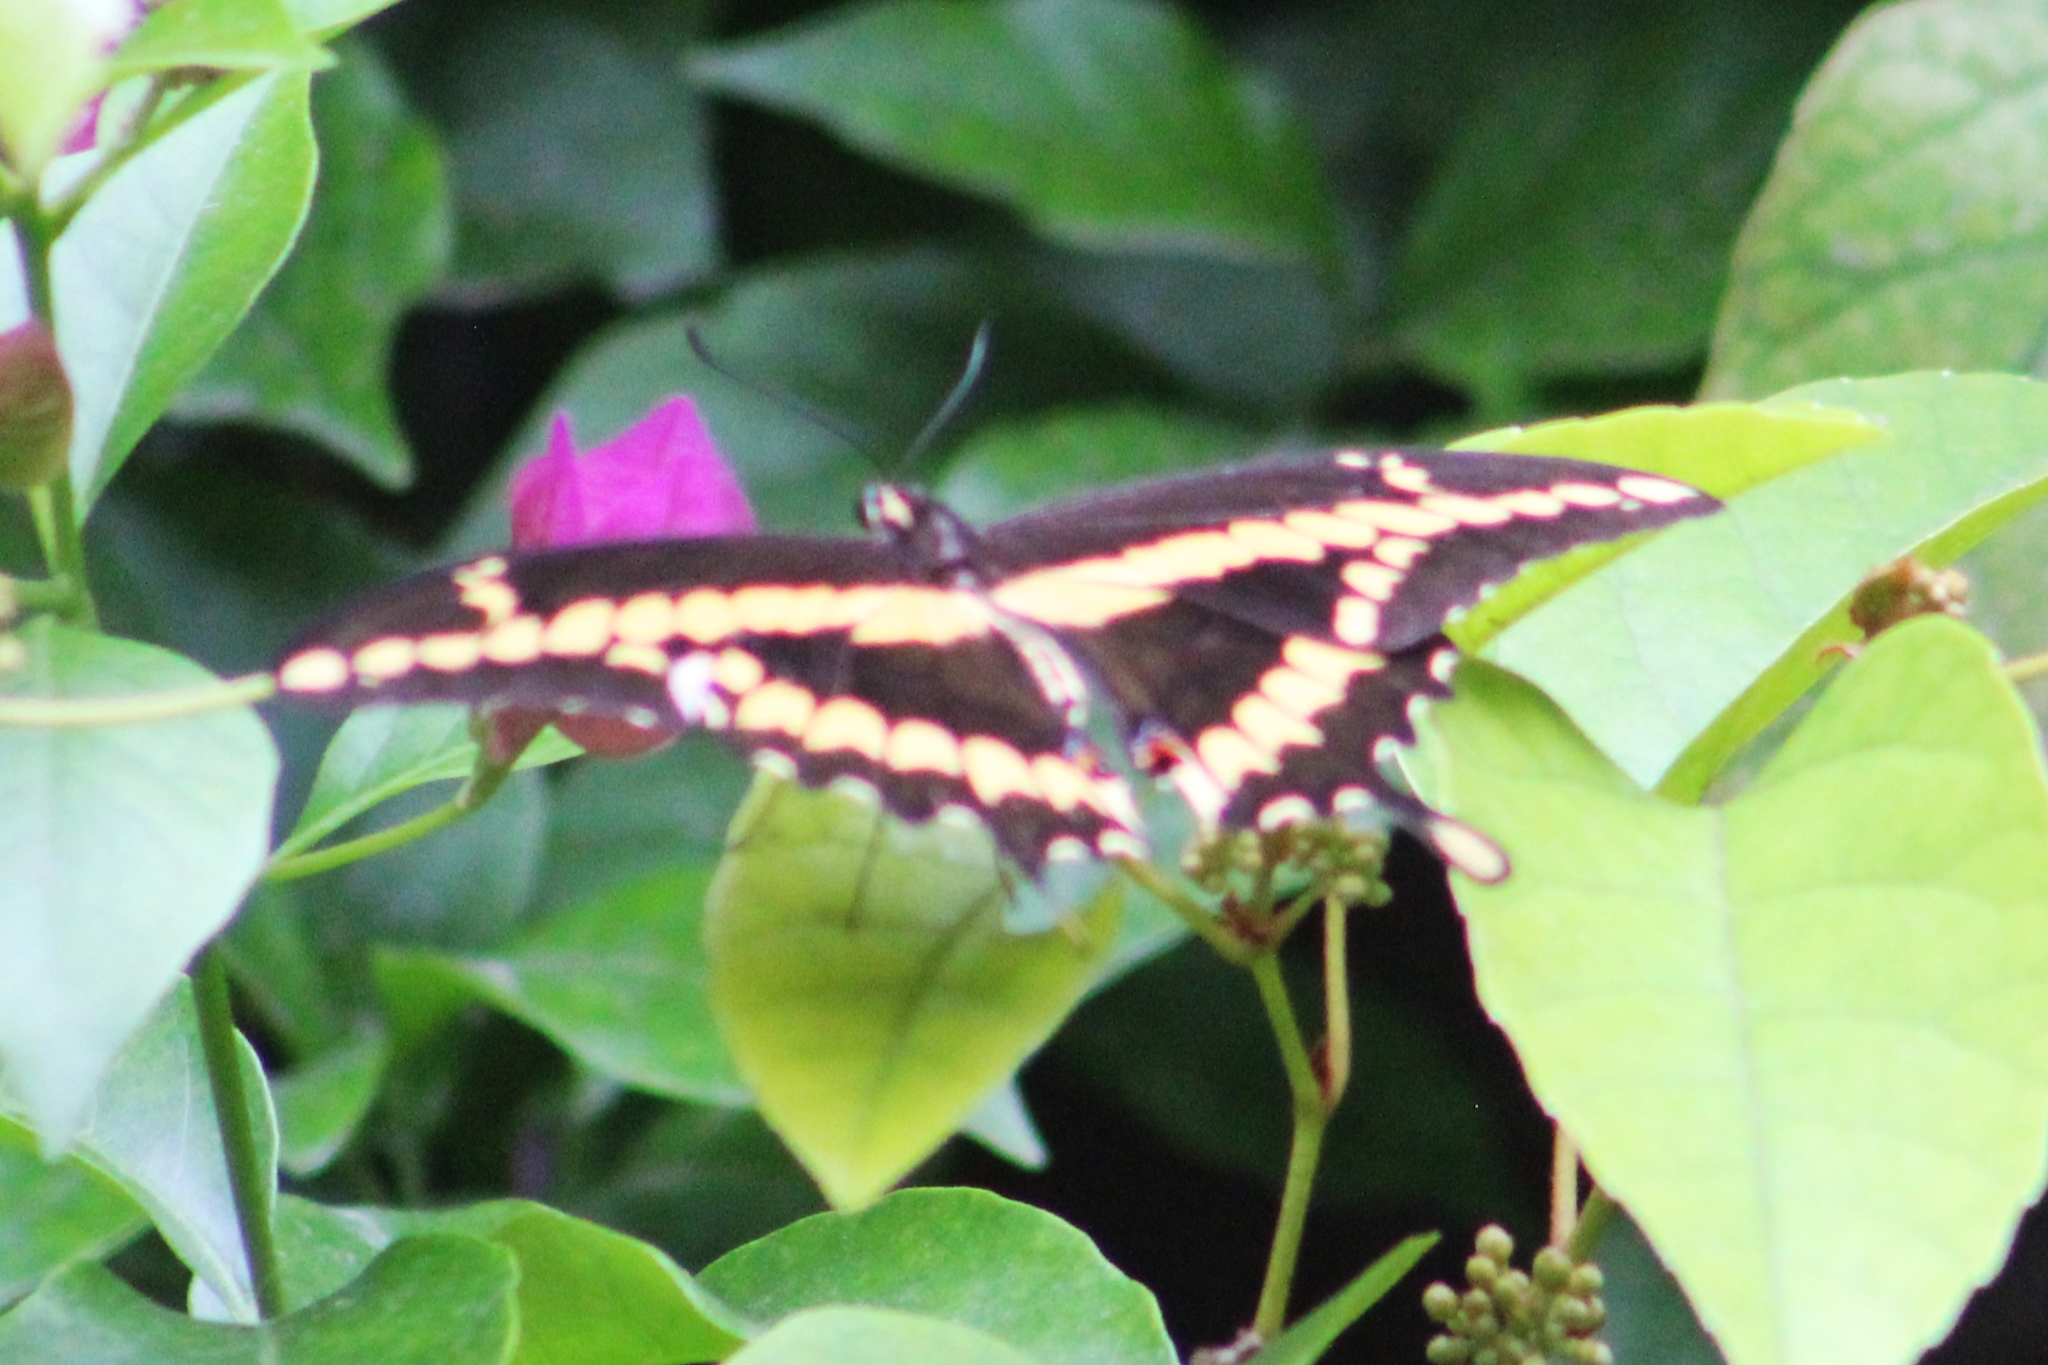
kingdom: Animalia
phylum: Arthropoda
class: Insecta
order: Lepidoptera
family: Papilionidae
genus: Papilio
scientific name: Papilio rumiko
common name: Western giant swallowtail
